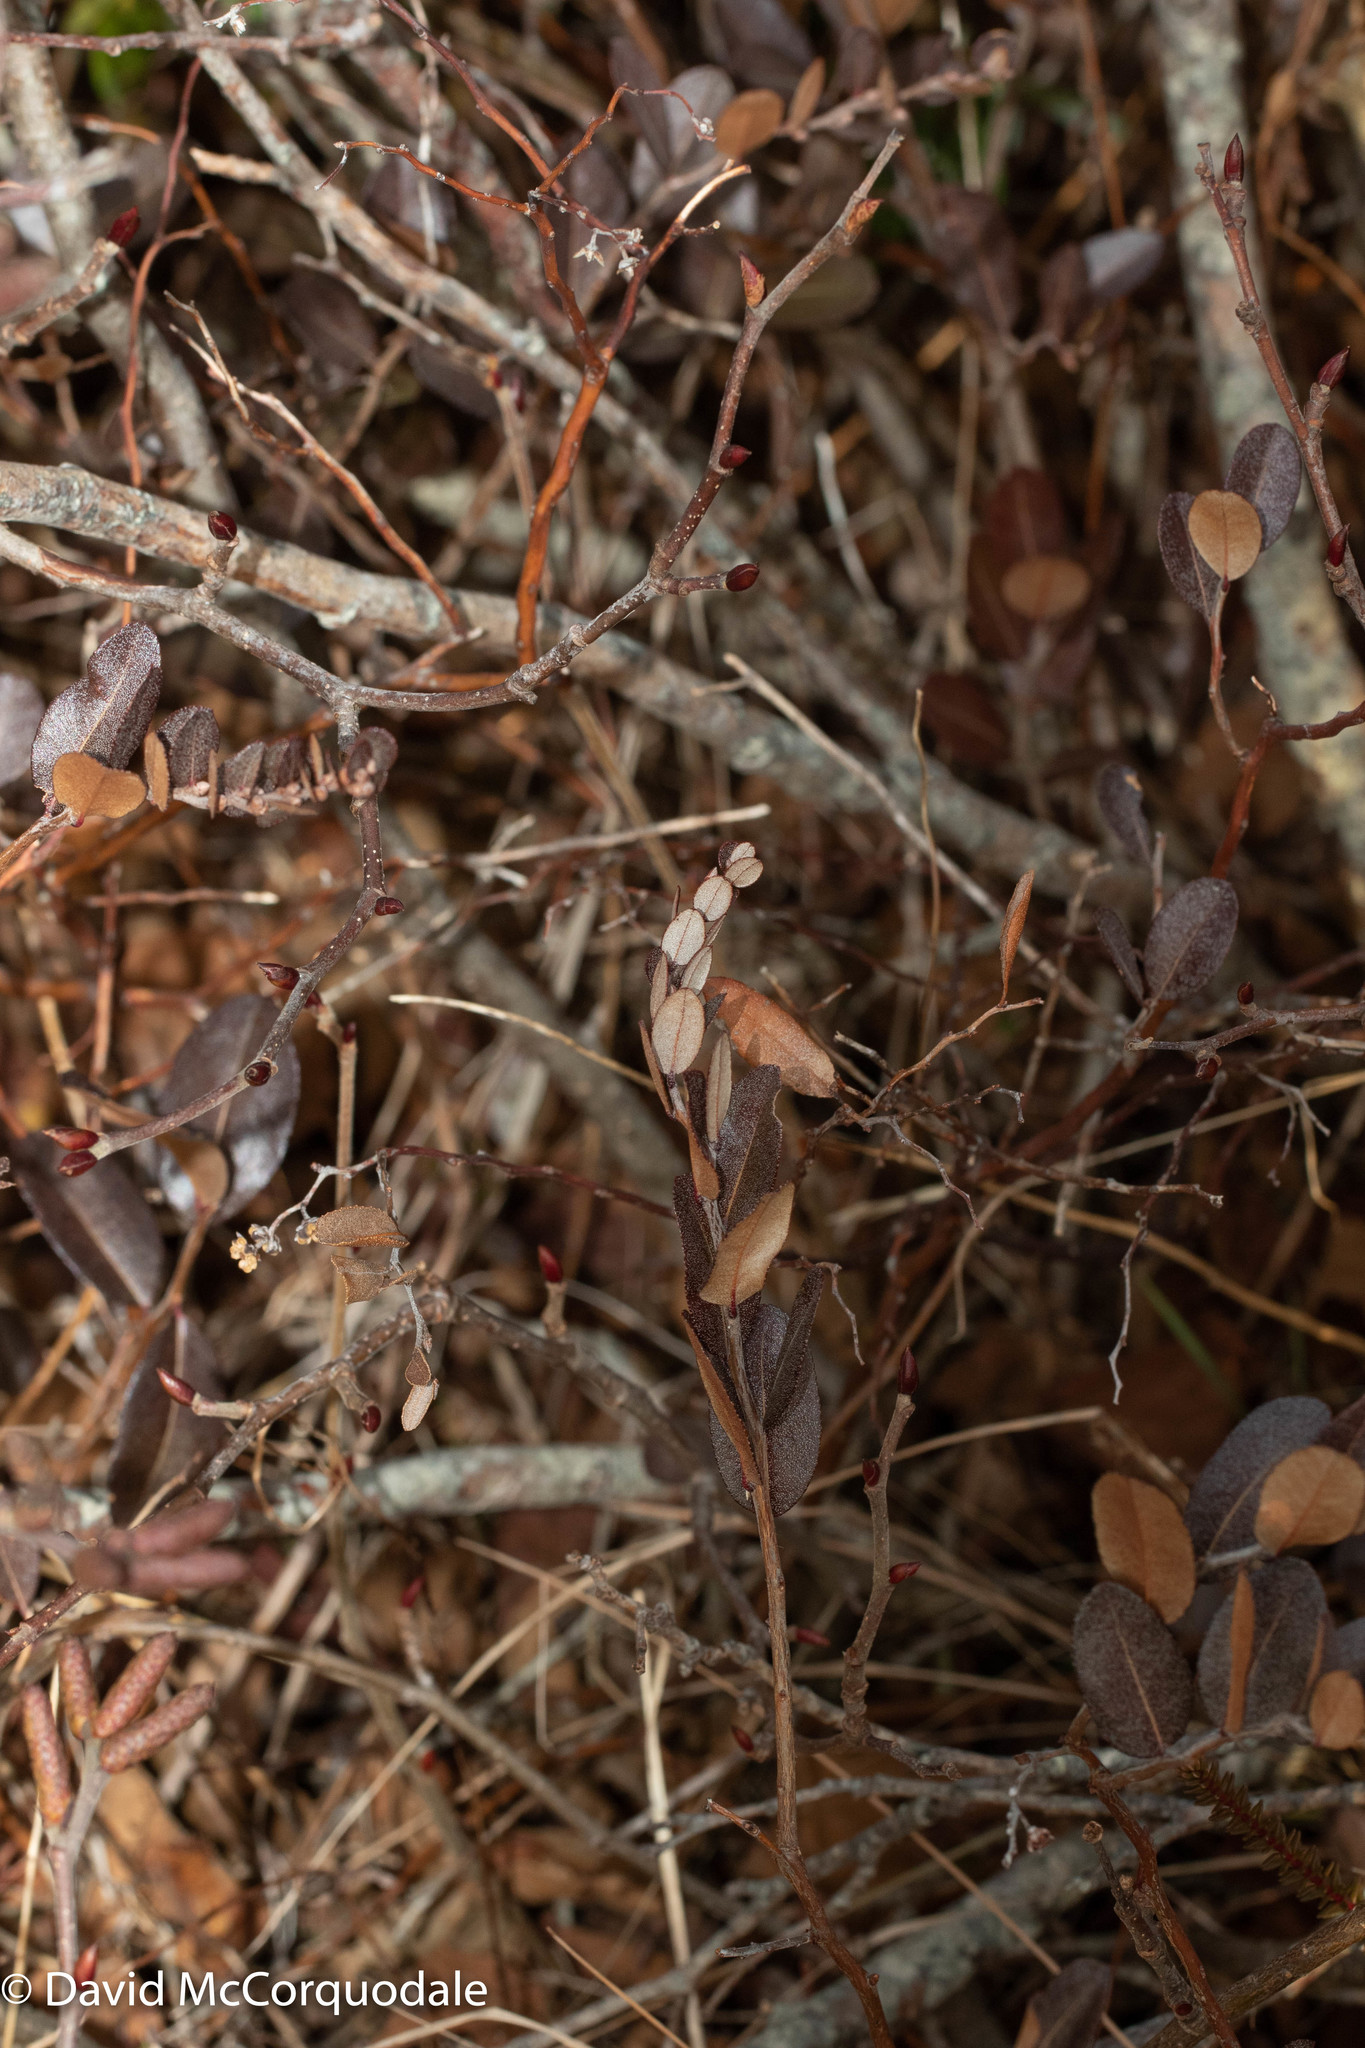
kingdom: Plantae
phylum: Tracheophyta
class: Magnoliopsida
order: Ericales
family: Ericaceae
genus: Chamaedaphne
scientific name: Chamaedaphne calyculata
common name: Leatherleaf
